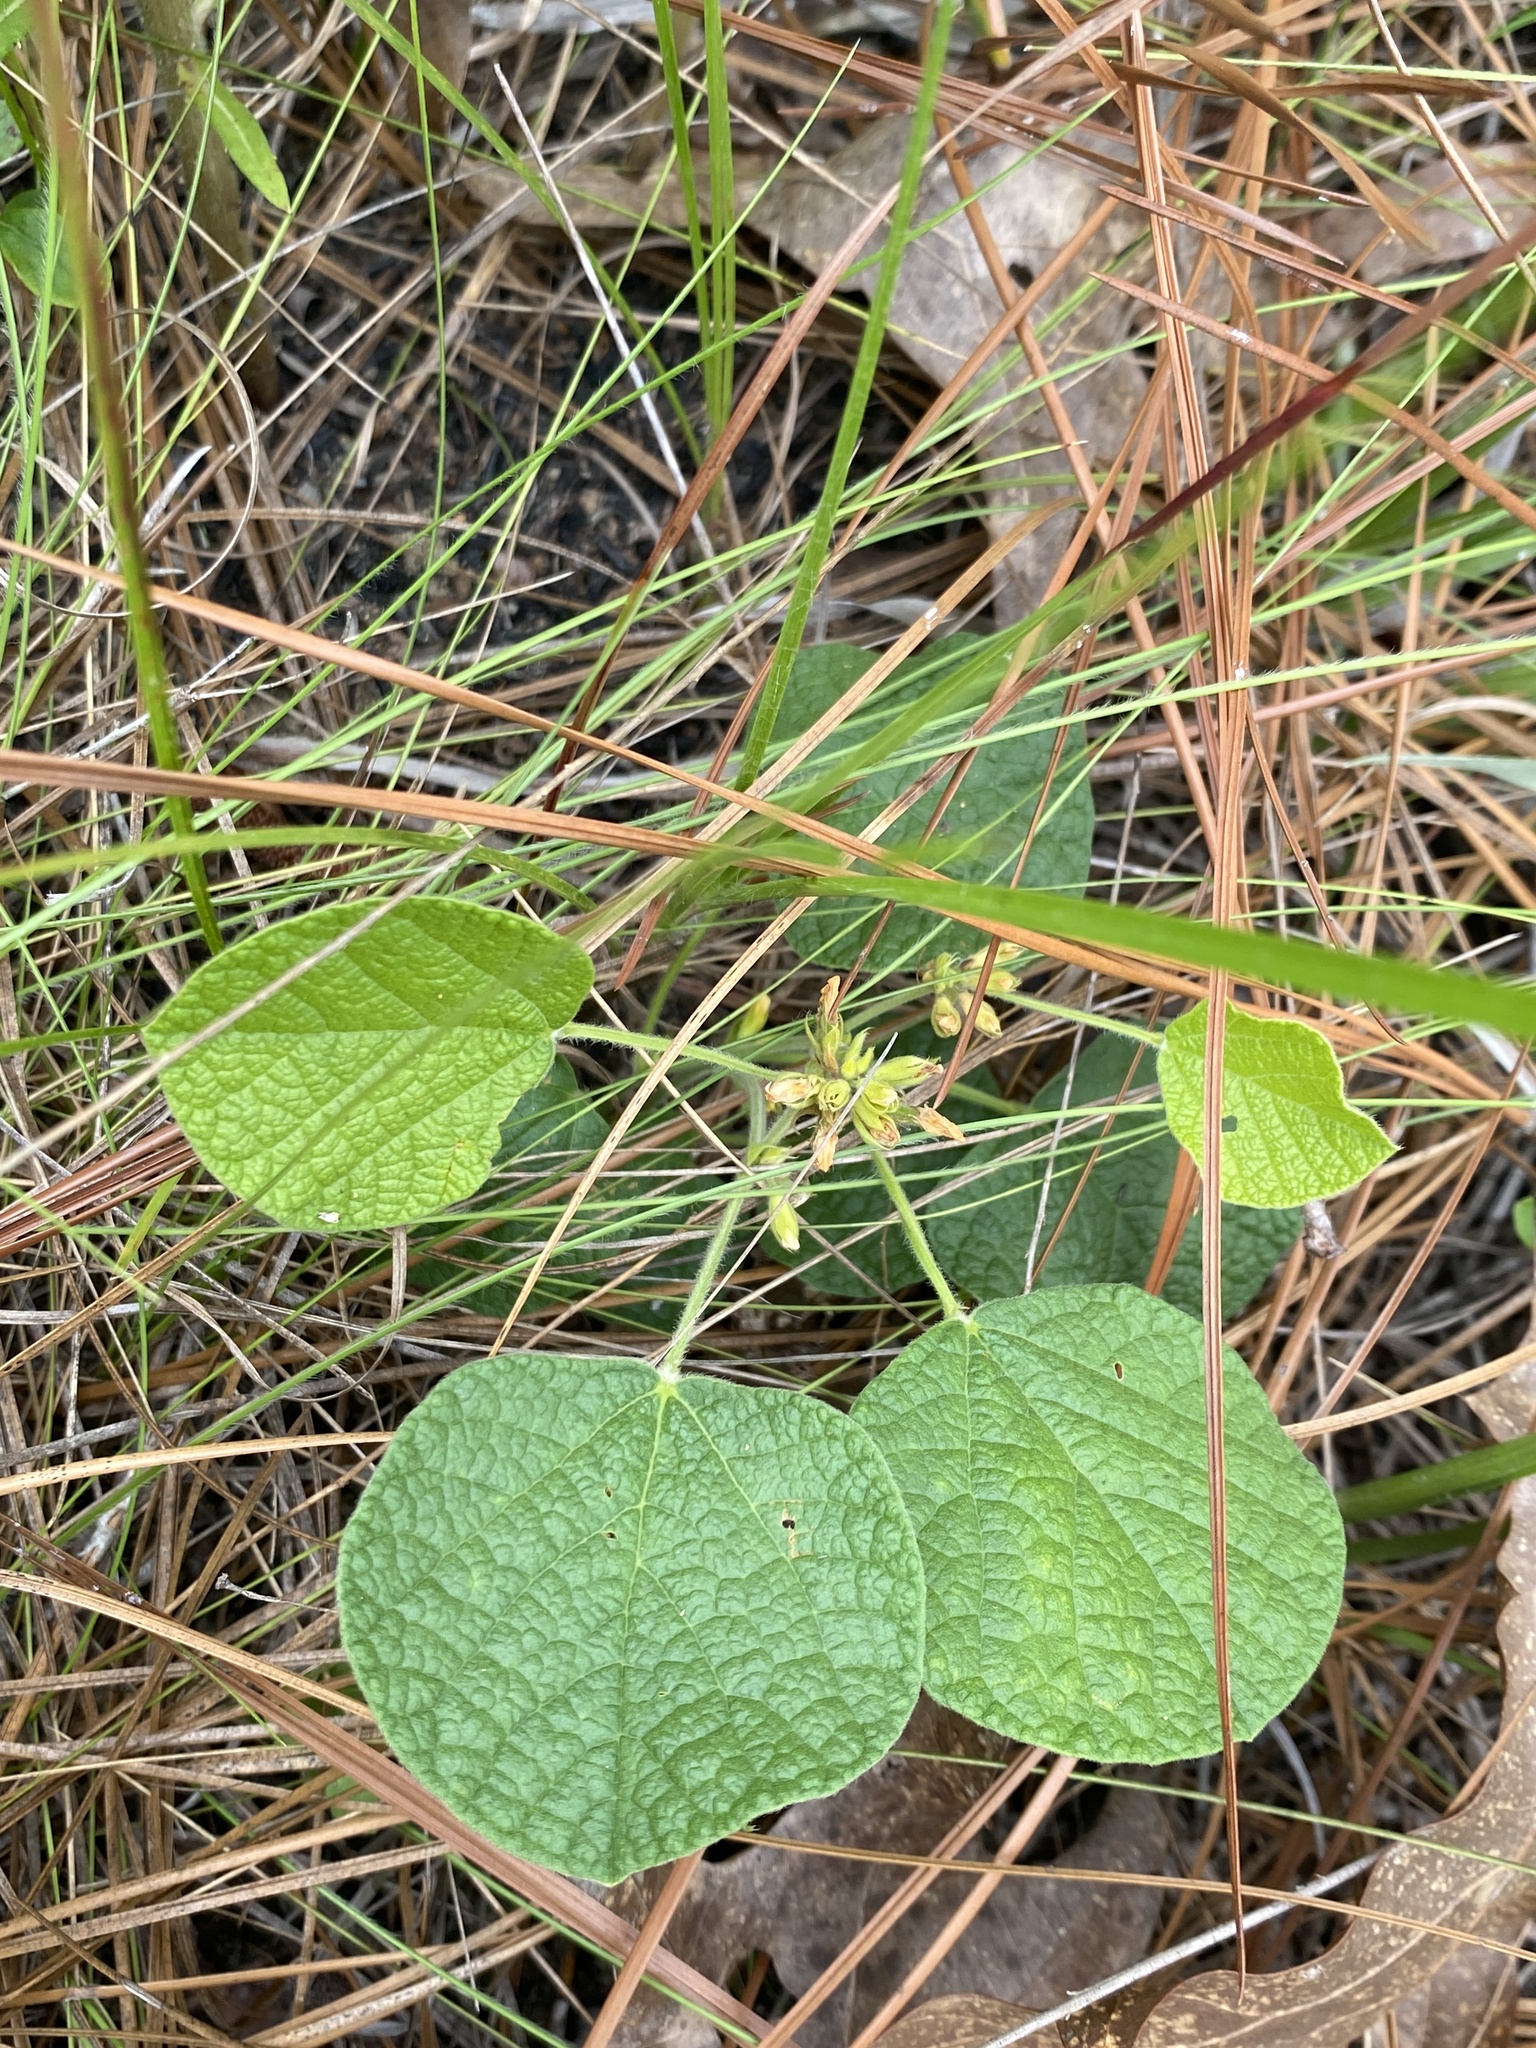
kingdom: Plantae
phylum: Tracheophyta
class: Magnoliopsida
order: Fabales
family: Fabaceae
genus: Rhynchosia
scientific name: Rhynchosia reniformis
